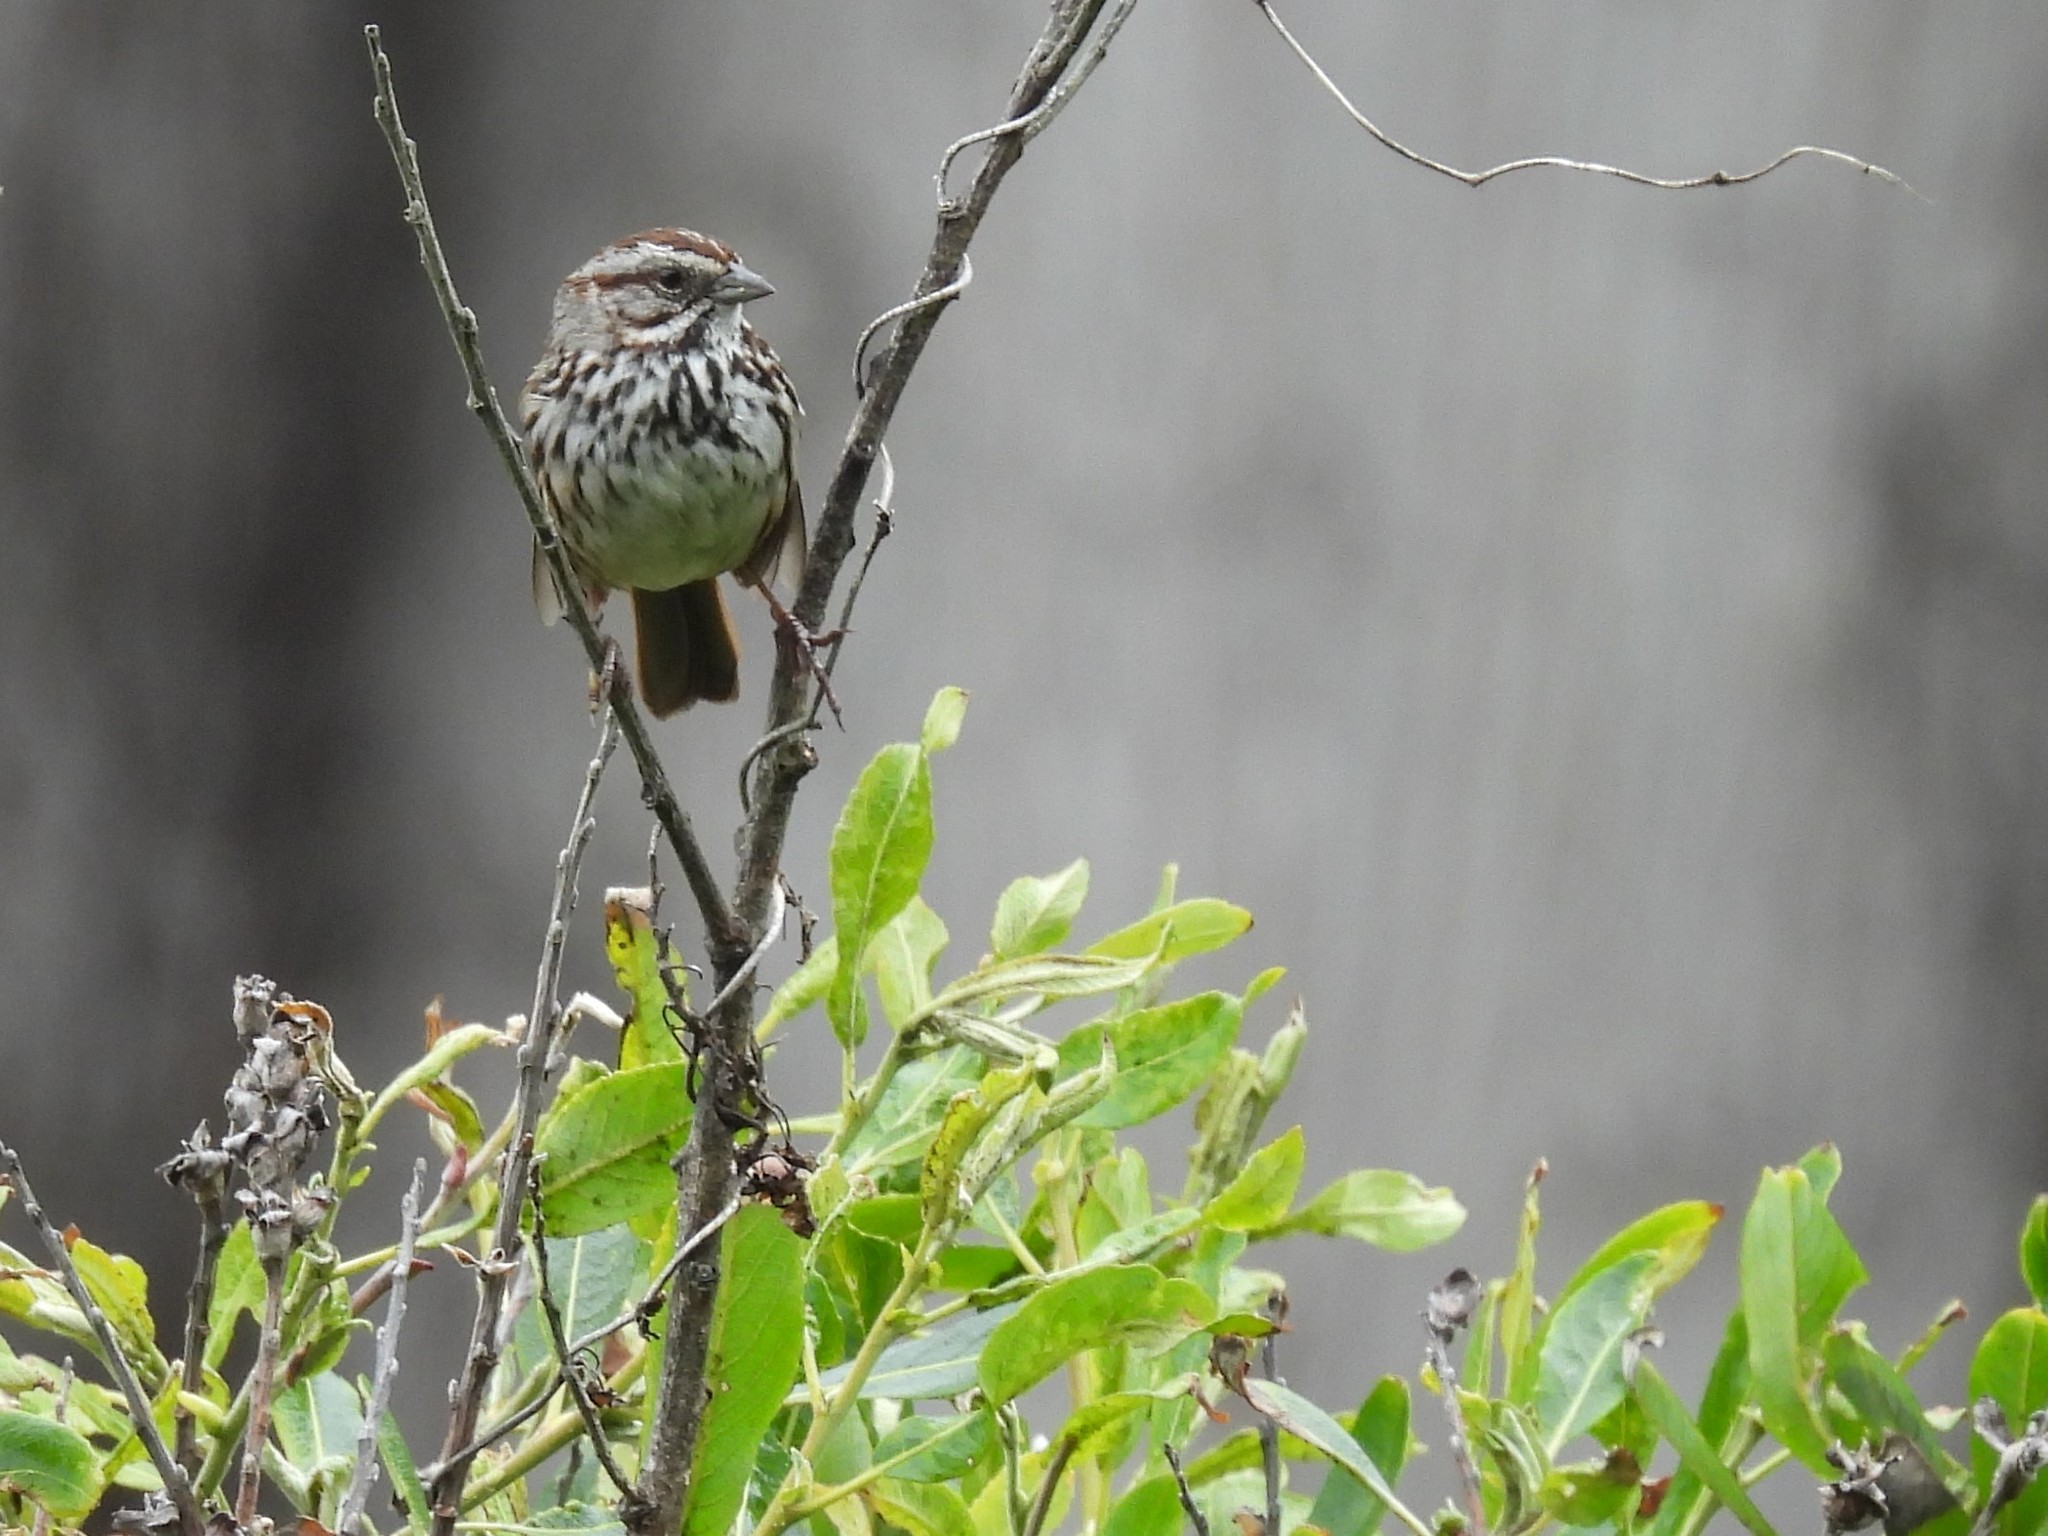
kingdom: Animalia
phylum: Chordata
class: Aves
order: Passeriformes
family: Passerellidae
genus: Melospiza
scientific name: Melospiza melodia
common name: Song sparrow
